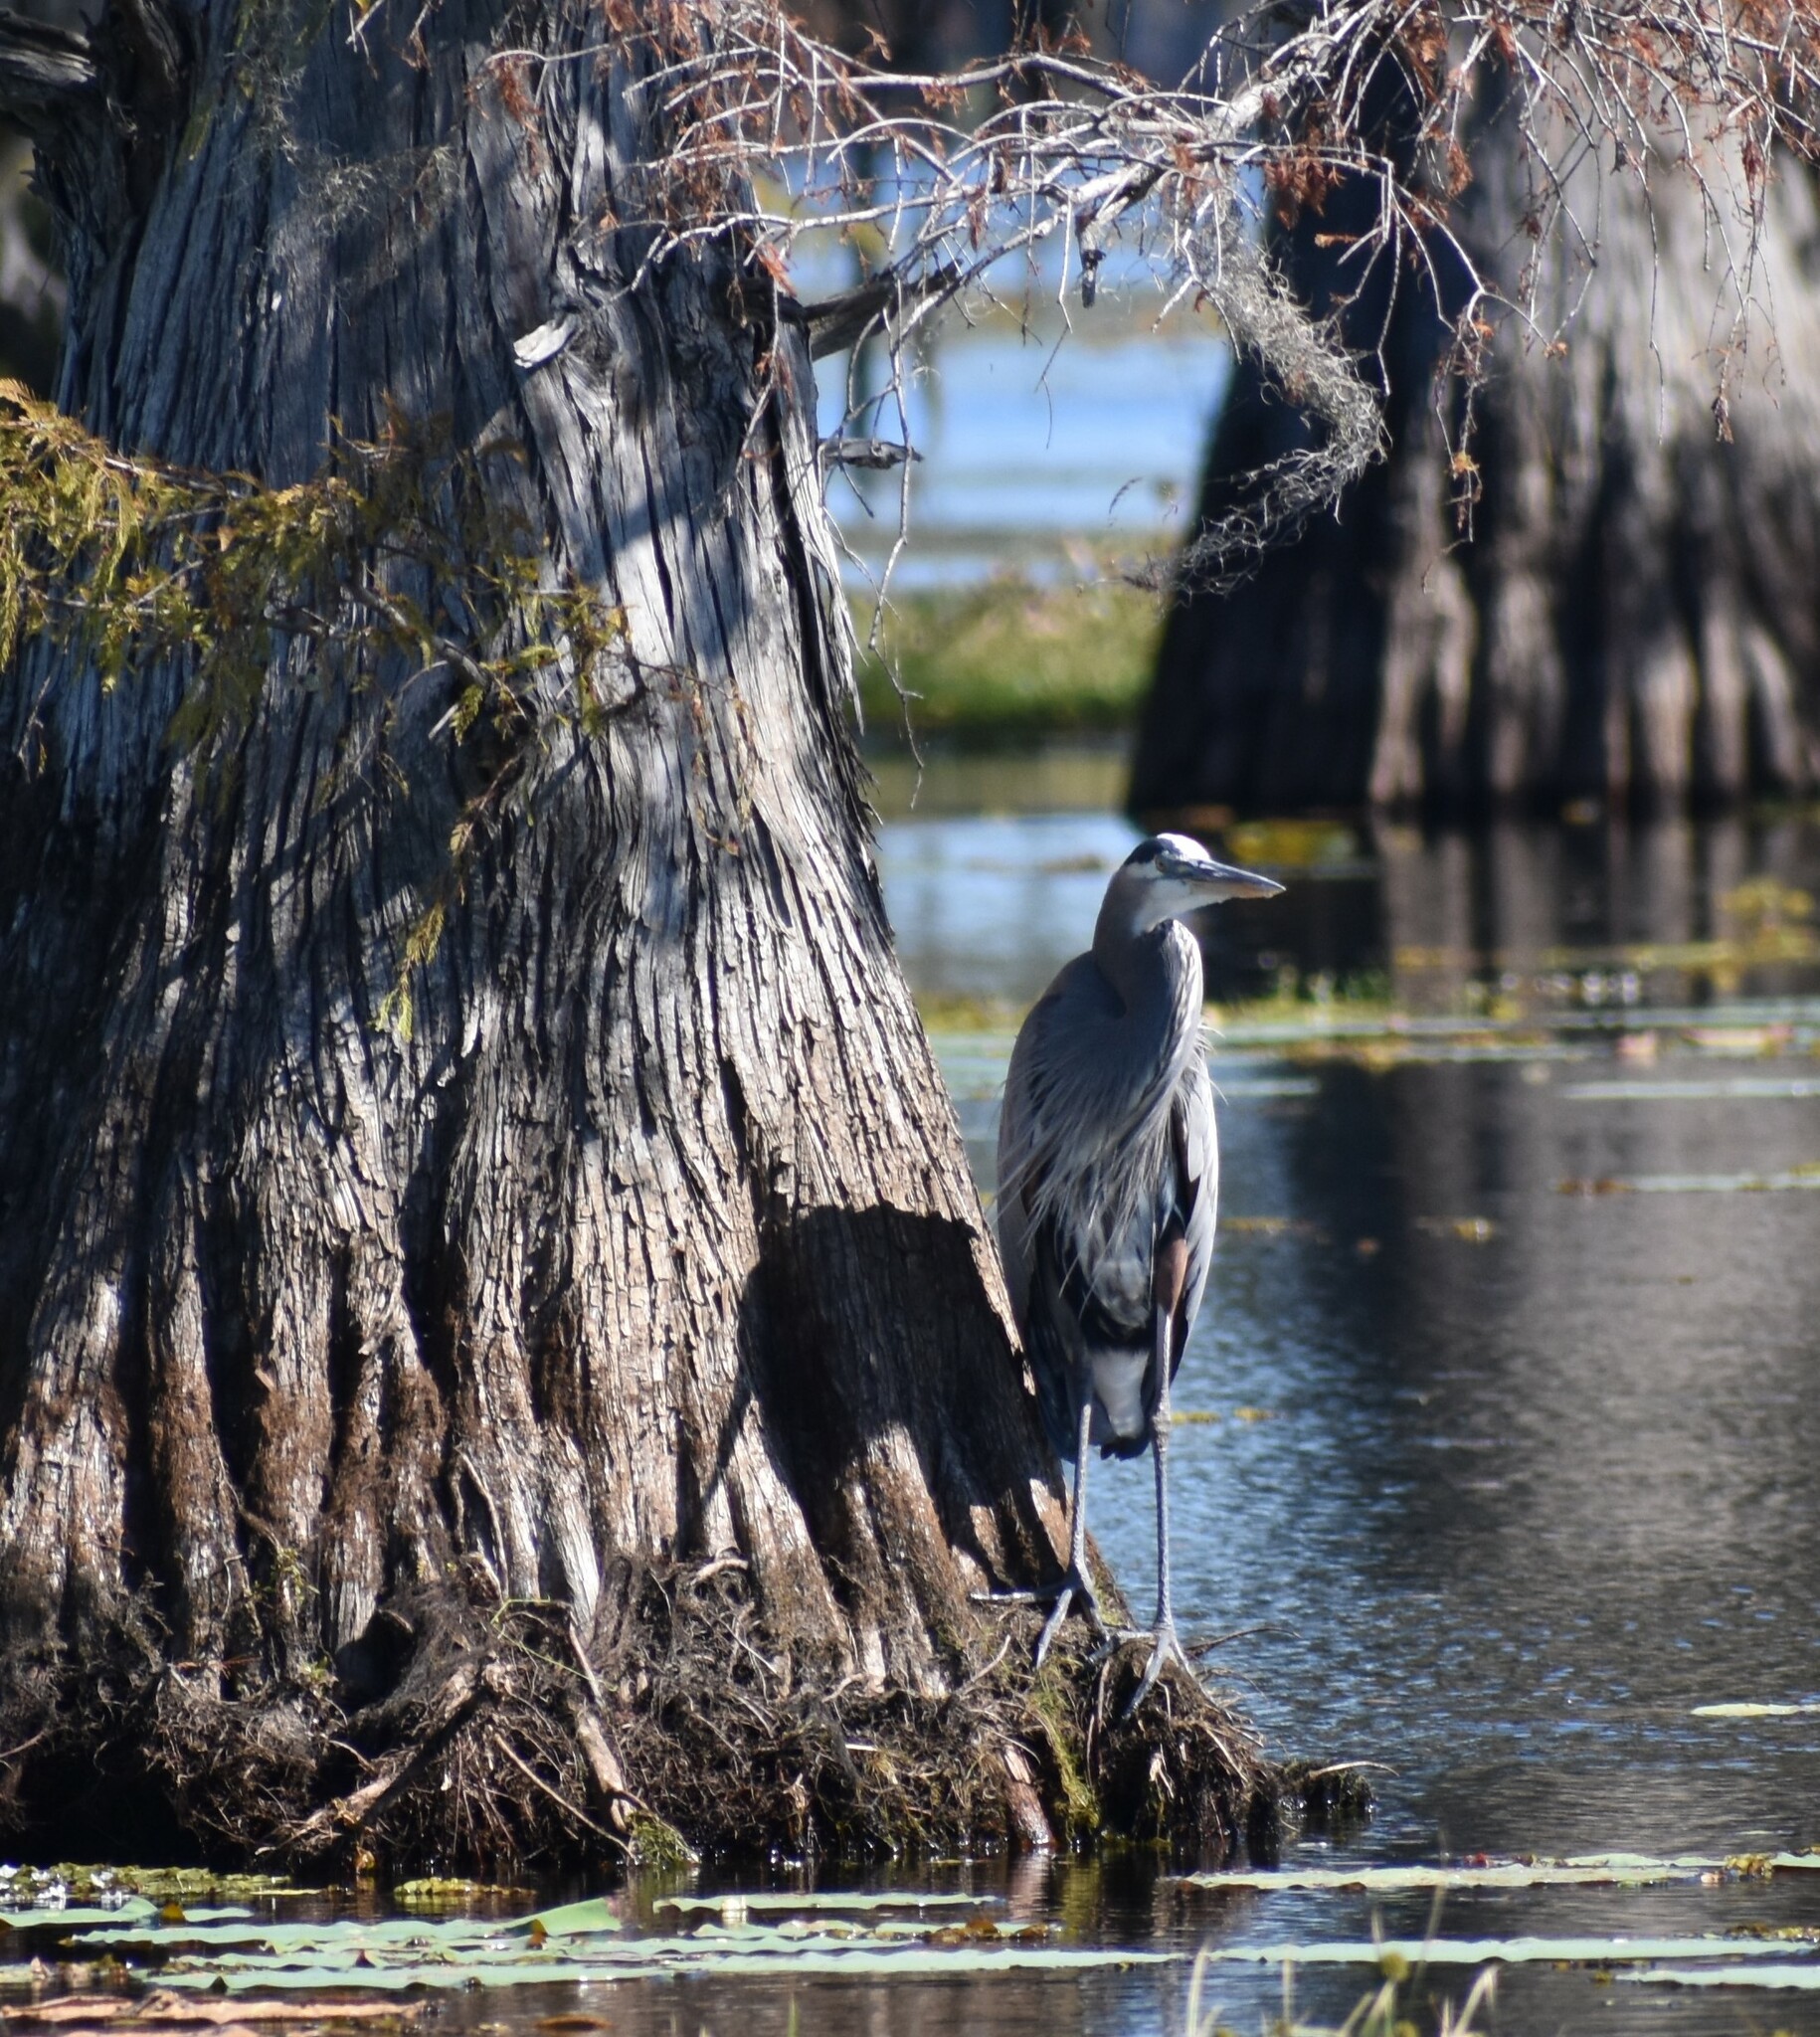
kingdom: Animalia
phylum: Chordata
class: Aves
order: Pelecaniformes
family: Ardeidae
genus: Ardea
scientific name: Ardea herodias
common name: Great blue heron
